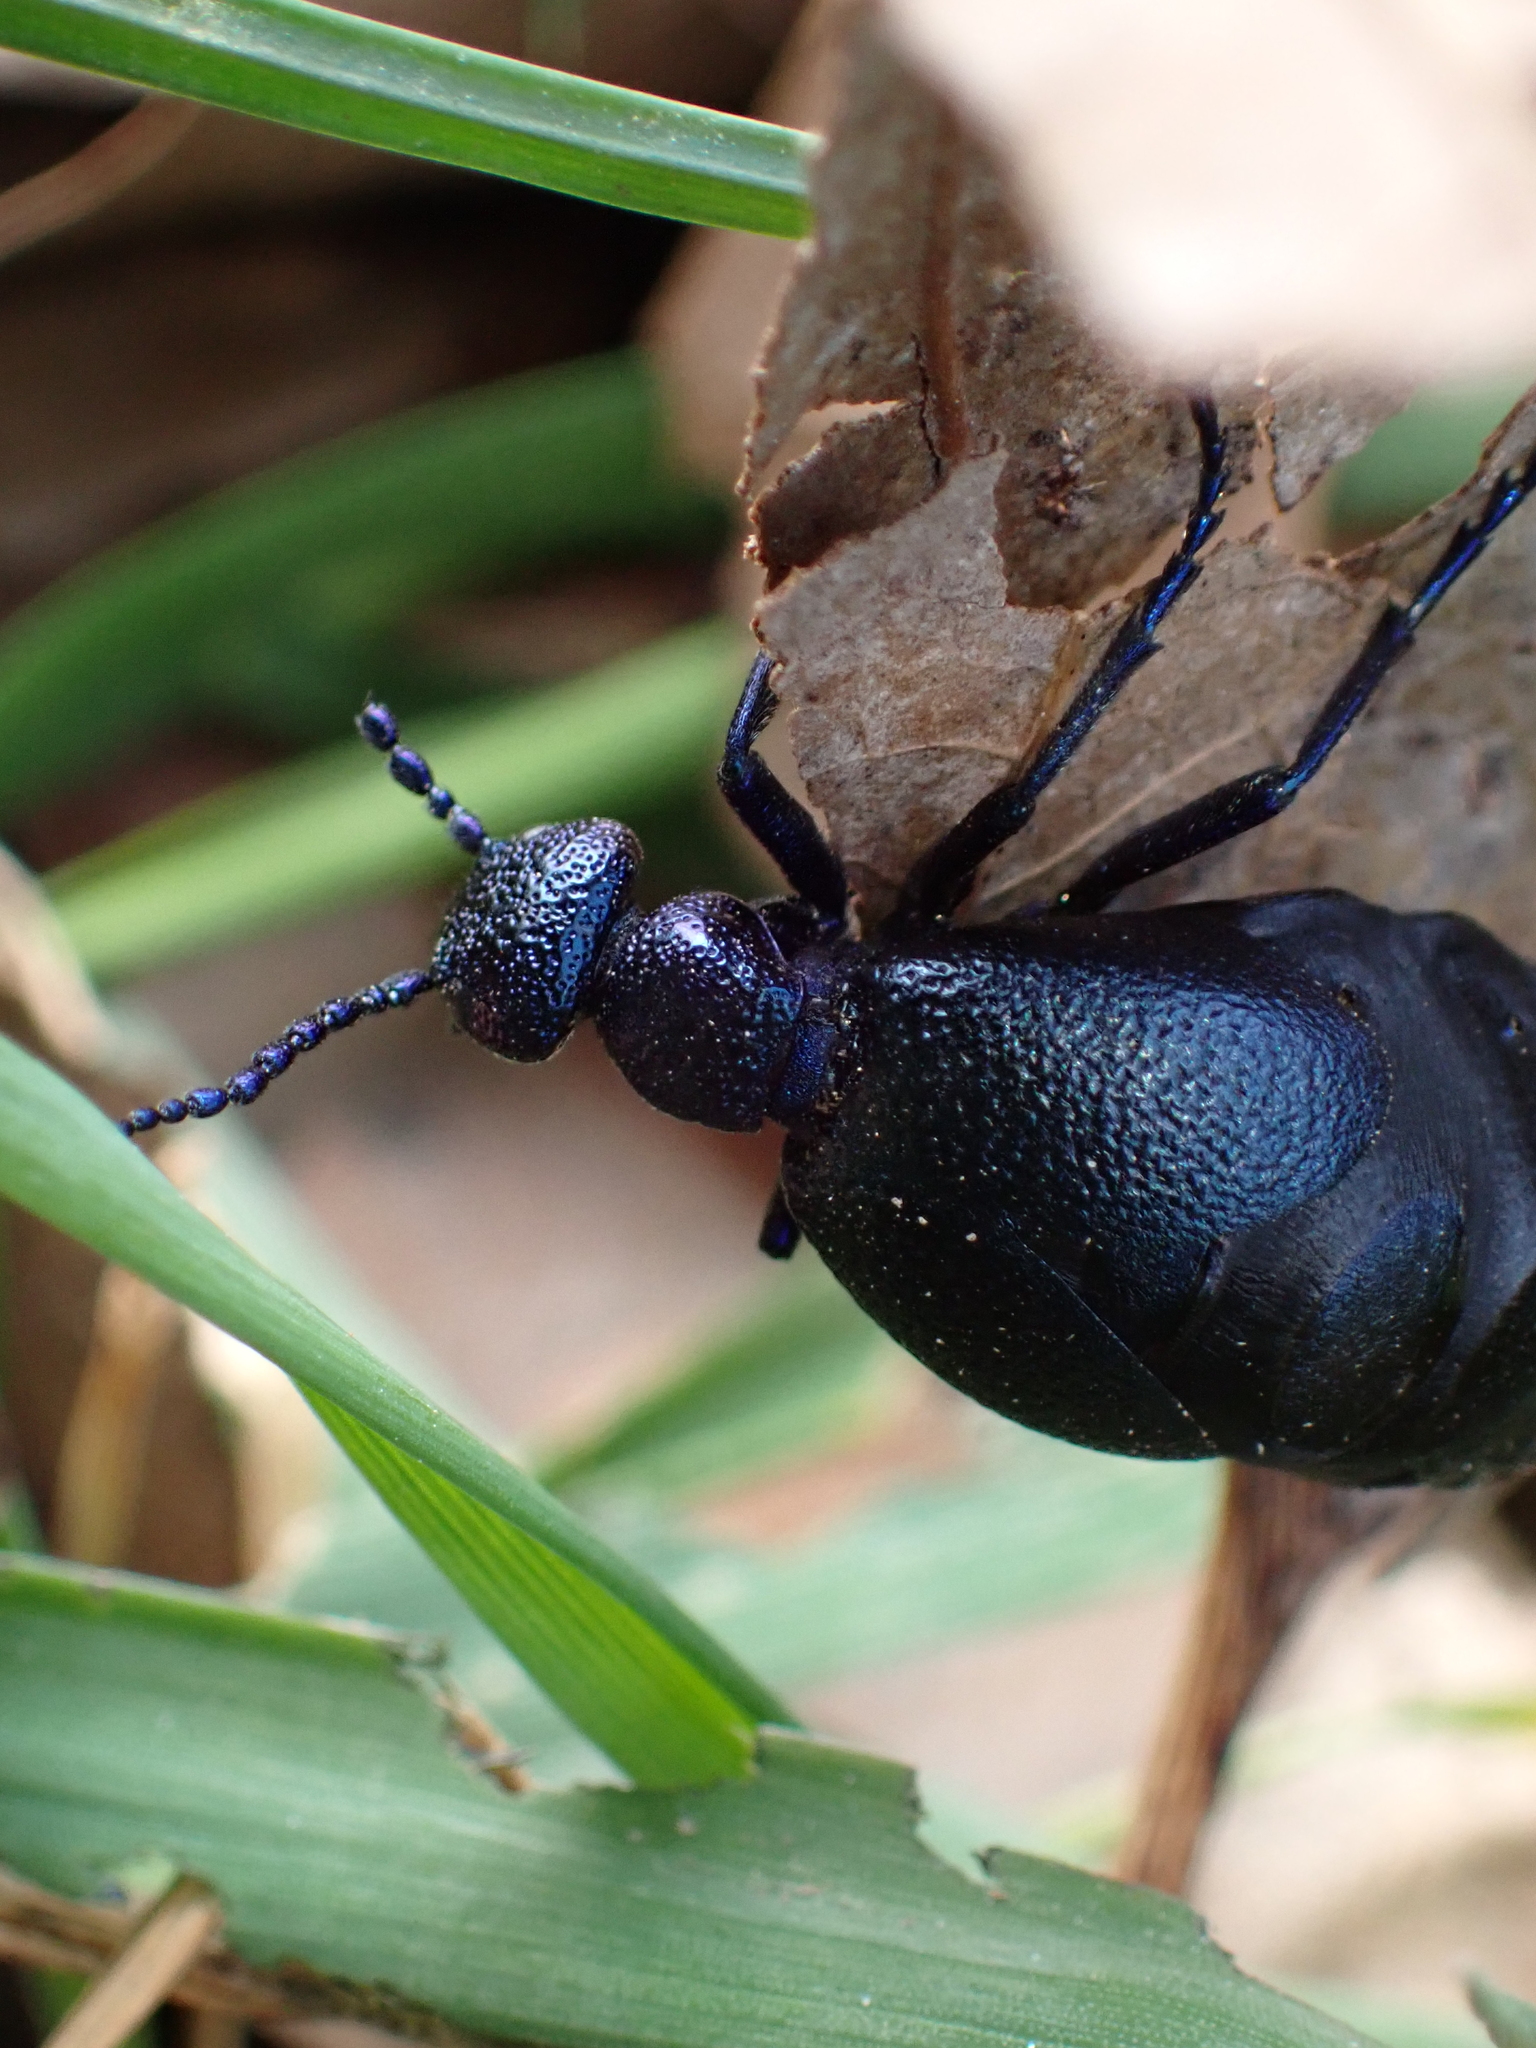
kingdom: Animalia
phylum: Arthropoda
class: Insecta
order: Coleoptera
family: Meloidae
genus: Meloe
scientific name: Meloe proscarabaeus
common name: Black oil-beetle
